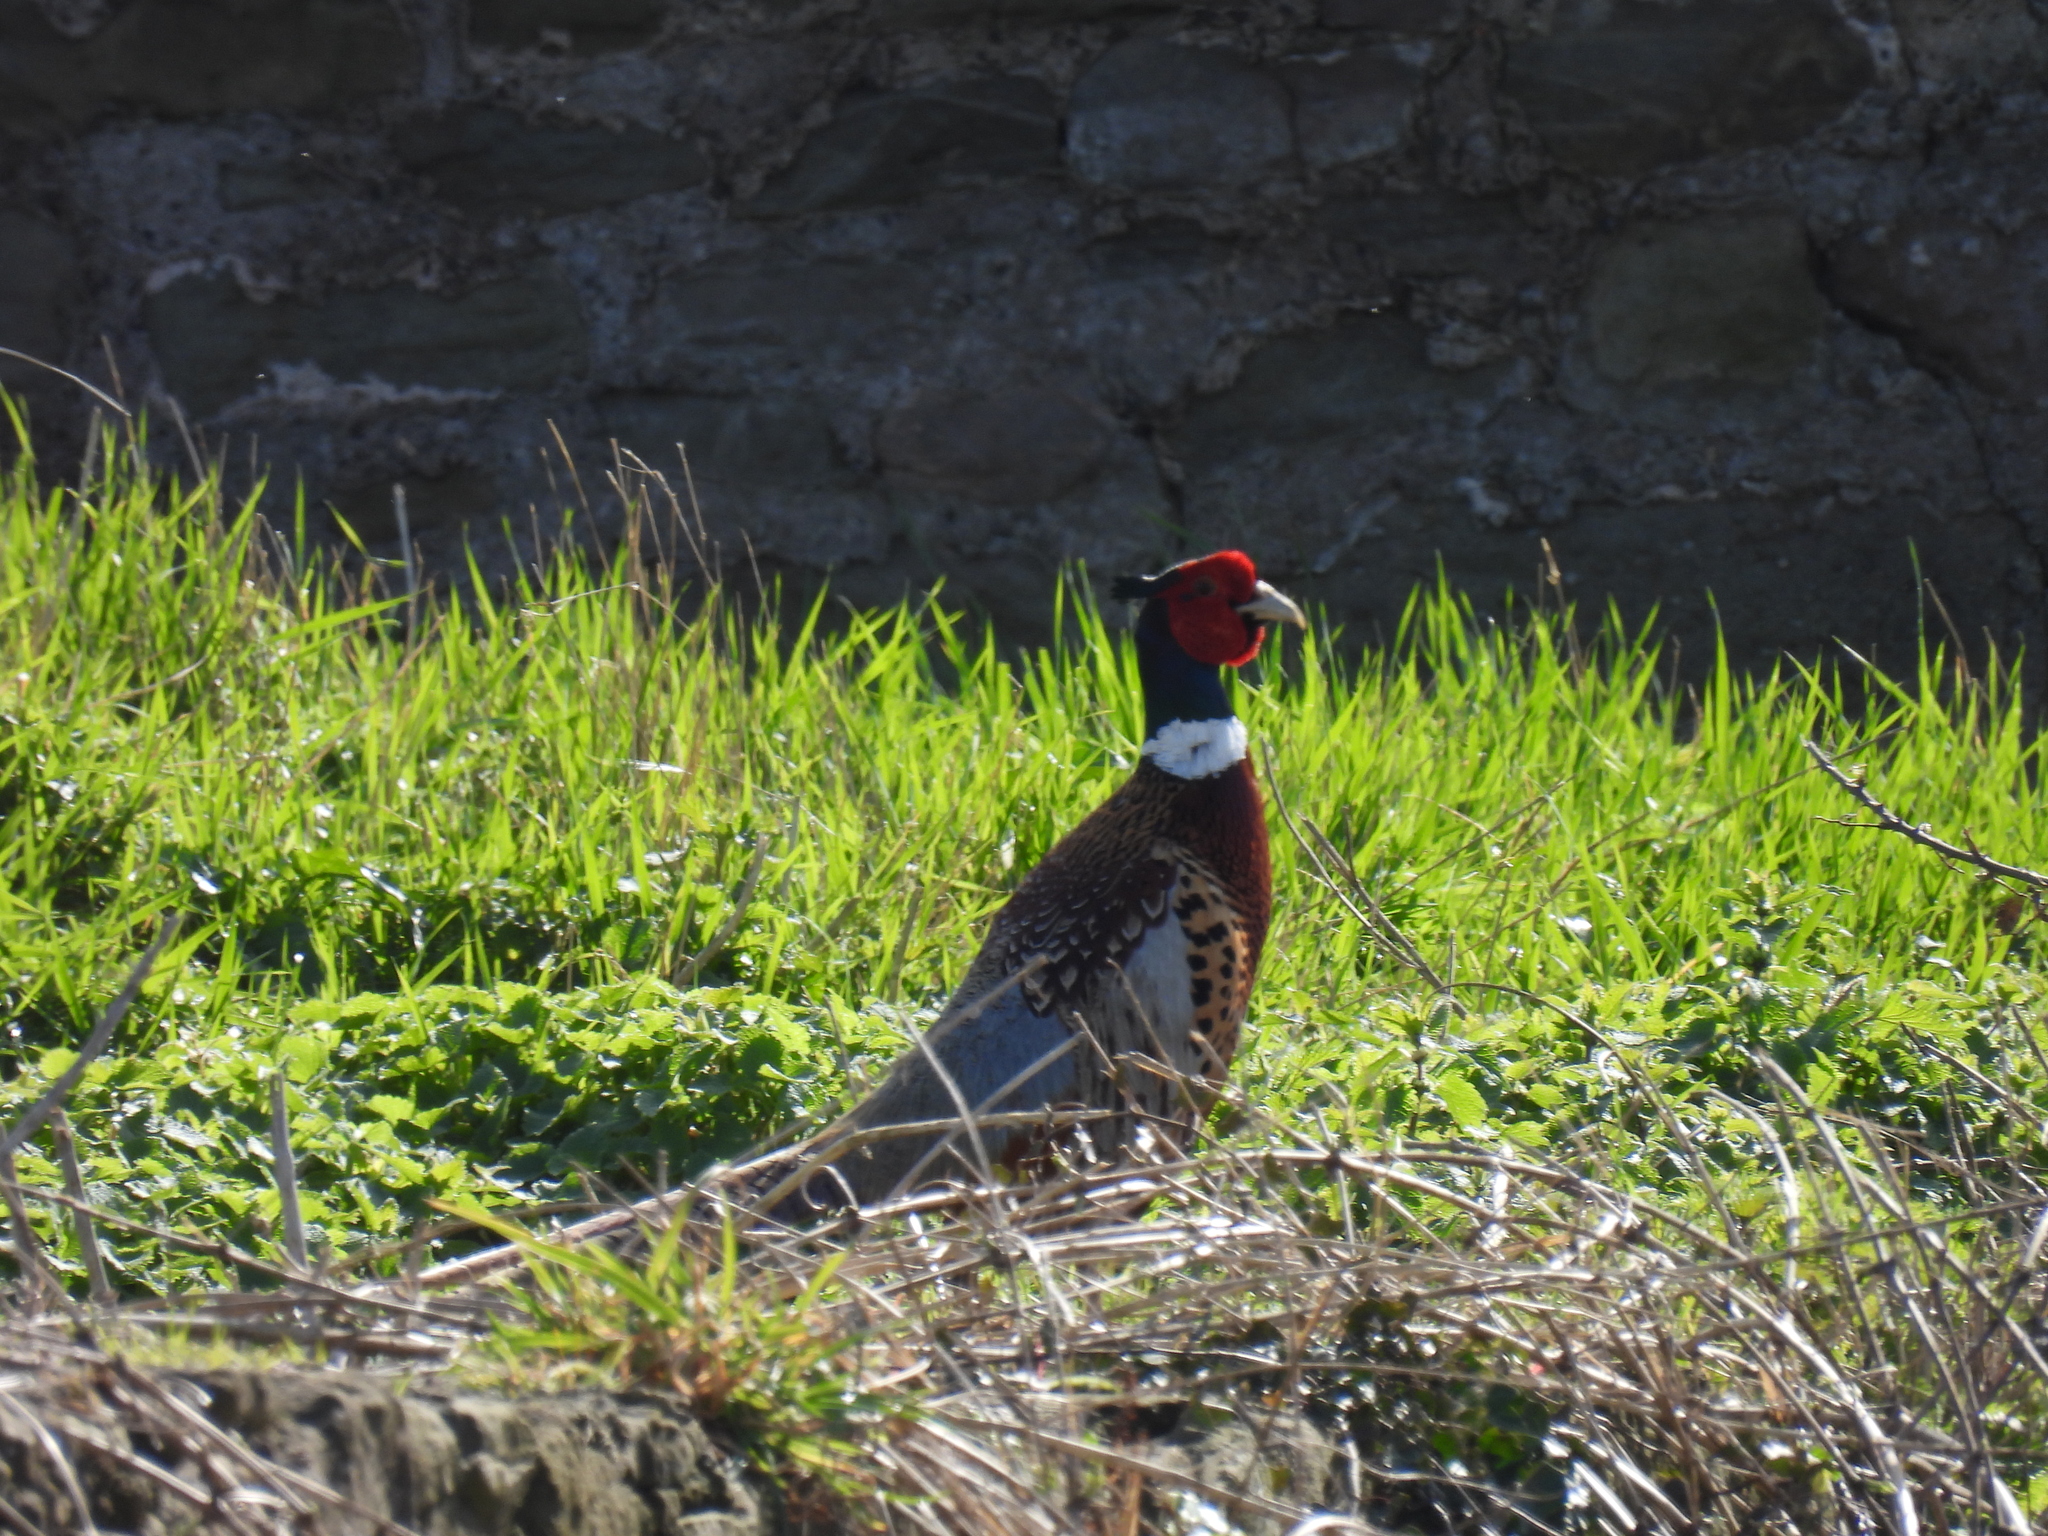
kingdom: Animalia
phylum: Chordata
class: Aves
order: Galliformes
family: Phasianidae
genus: Phasianus
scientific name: Phasianus colchicus
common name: Common pheasant
